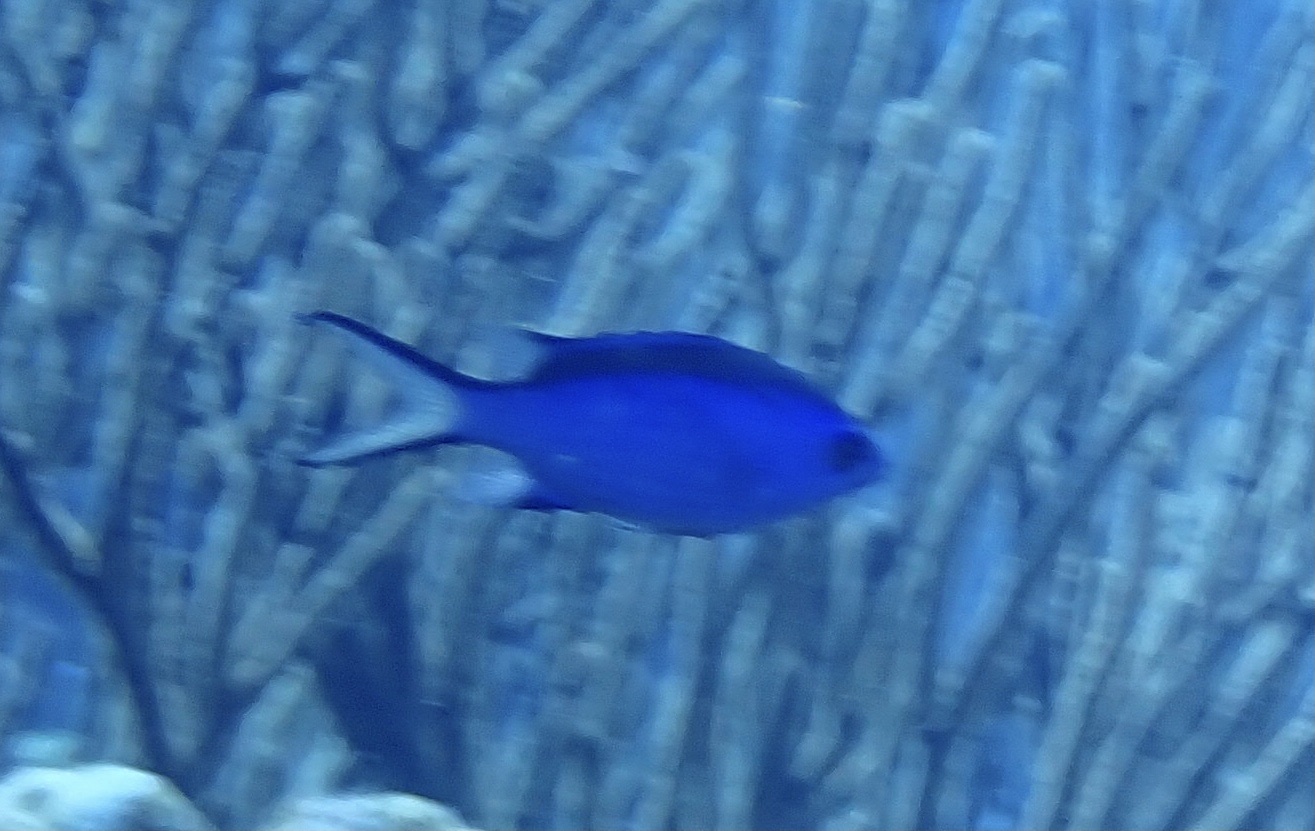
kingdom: Animalia
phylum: Chordata
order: Perciformes
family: Pomacentridae
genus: Chromis
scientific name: Chromis cyanea
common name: Blue chromis
